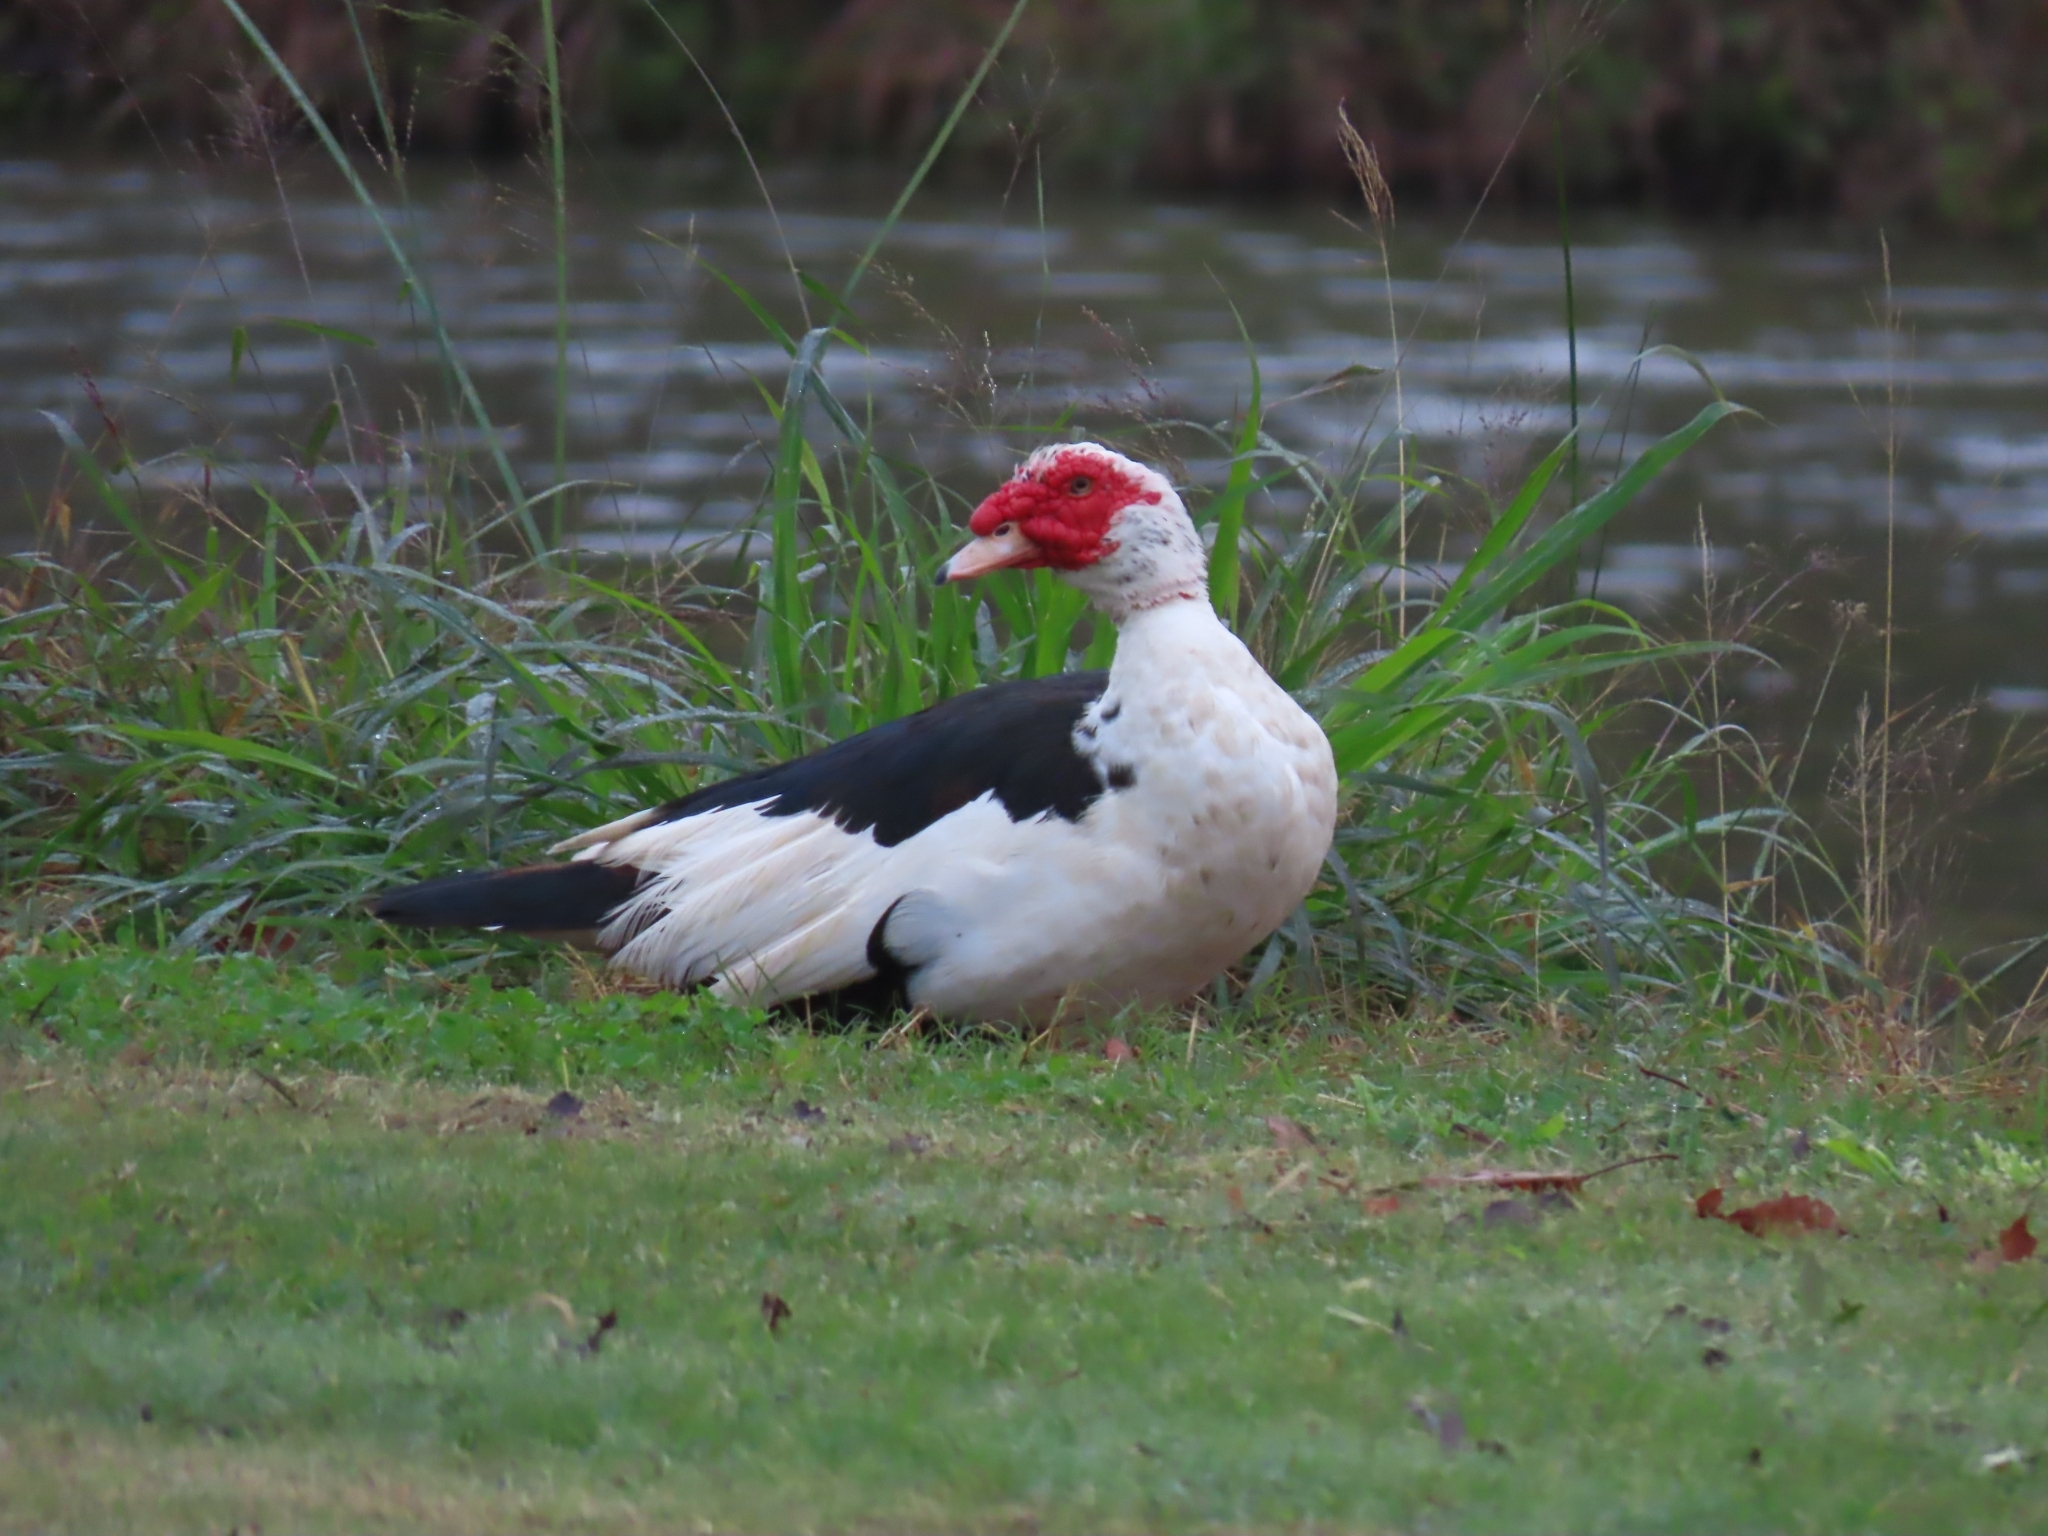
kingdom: Animalia
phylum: Chordata
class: Aves
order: Anseriformes
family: Anatidae
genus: Cairina
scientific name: Cairina moschata
